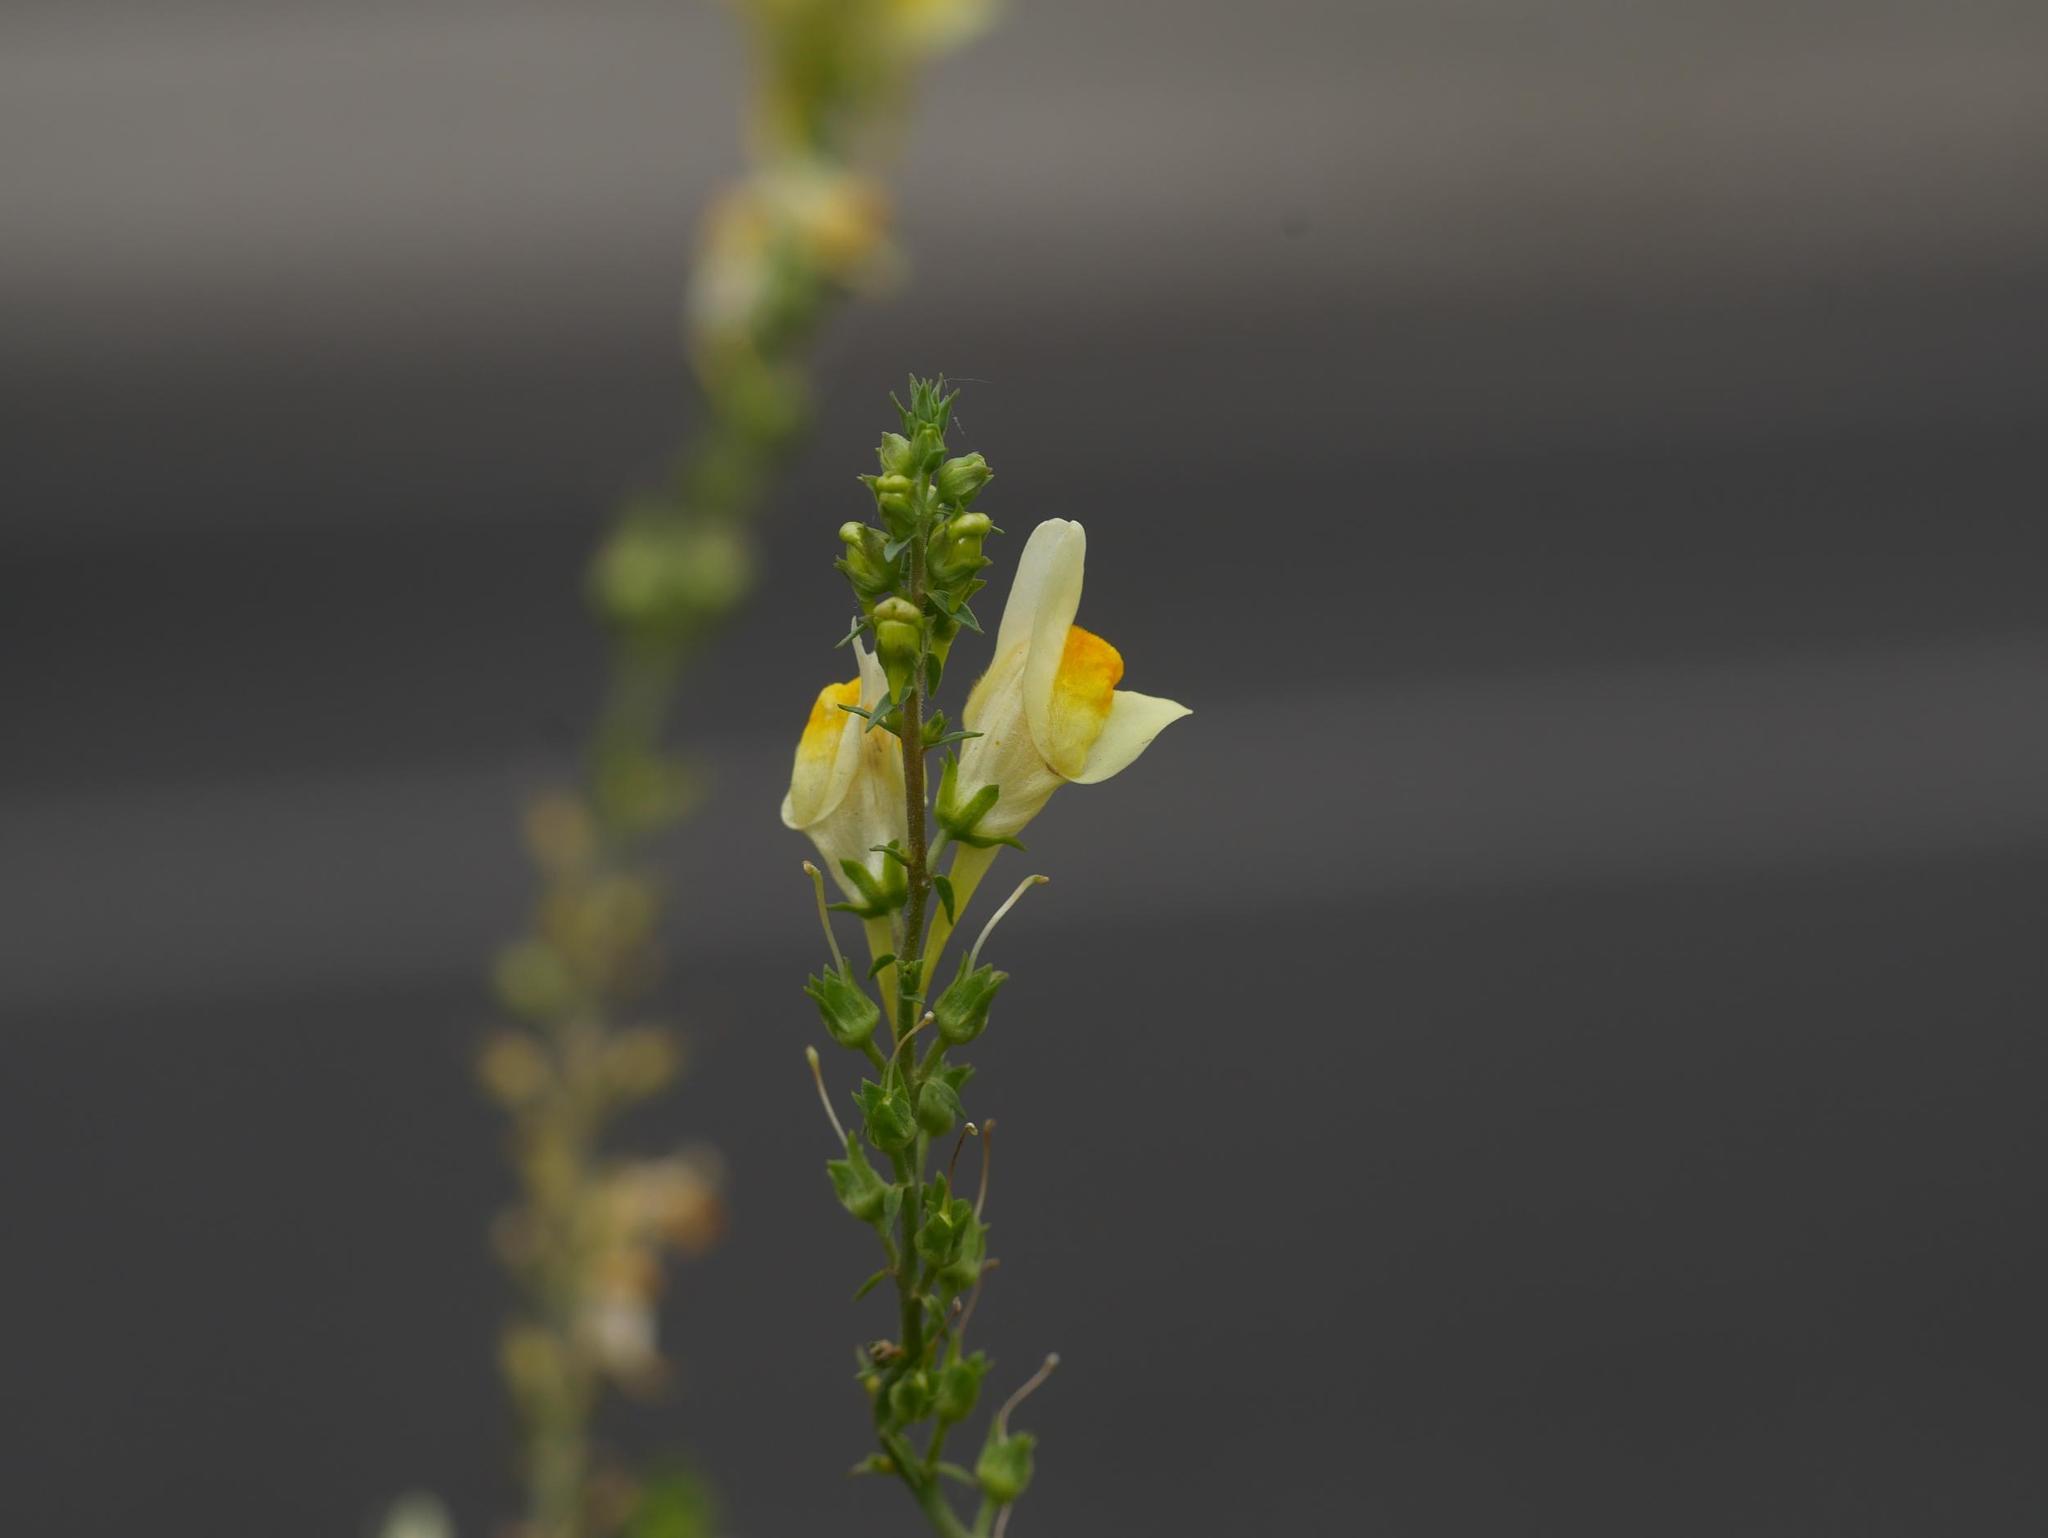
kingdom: Plantae
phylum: Tracheophyta
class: Magnoliopsida
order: Lamiales
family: Plantaginaceae
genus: Linaria
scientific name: Linaria vulgaris
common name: Butter and eggs
